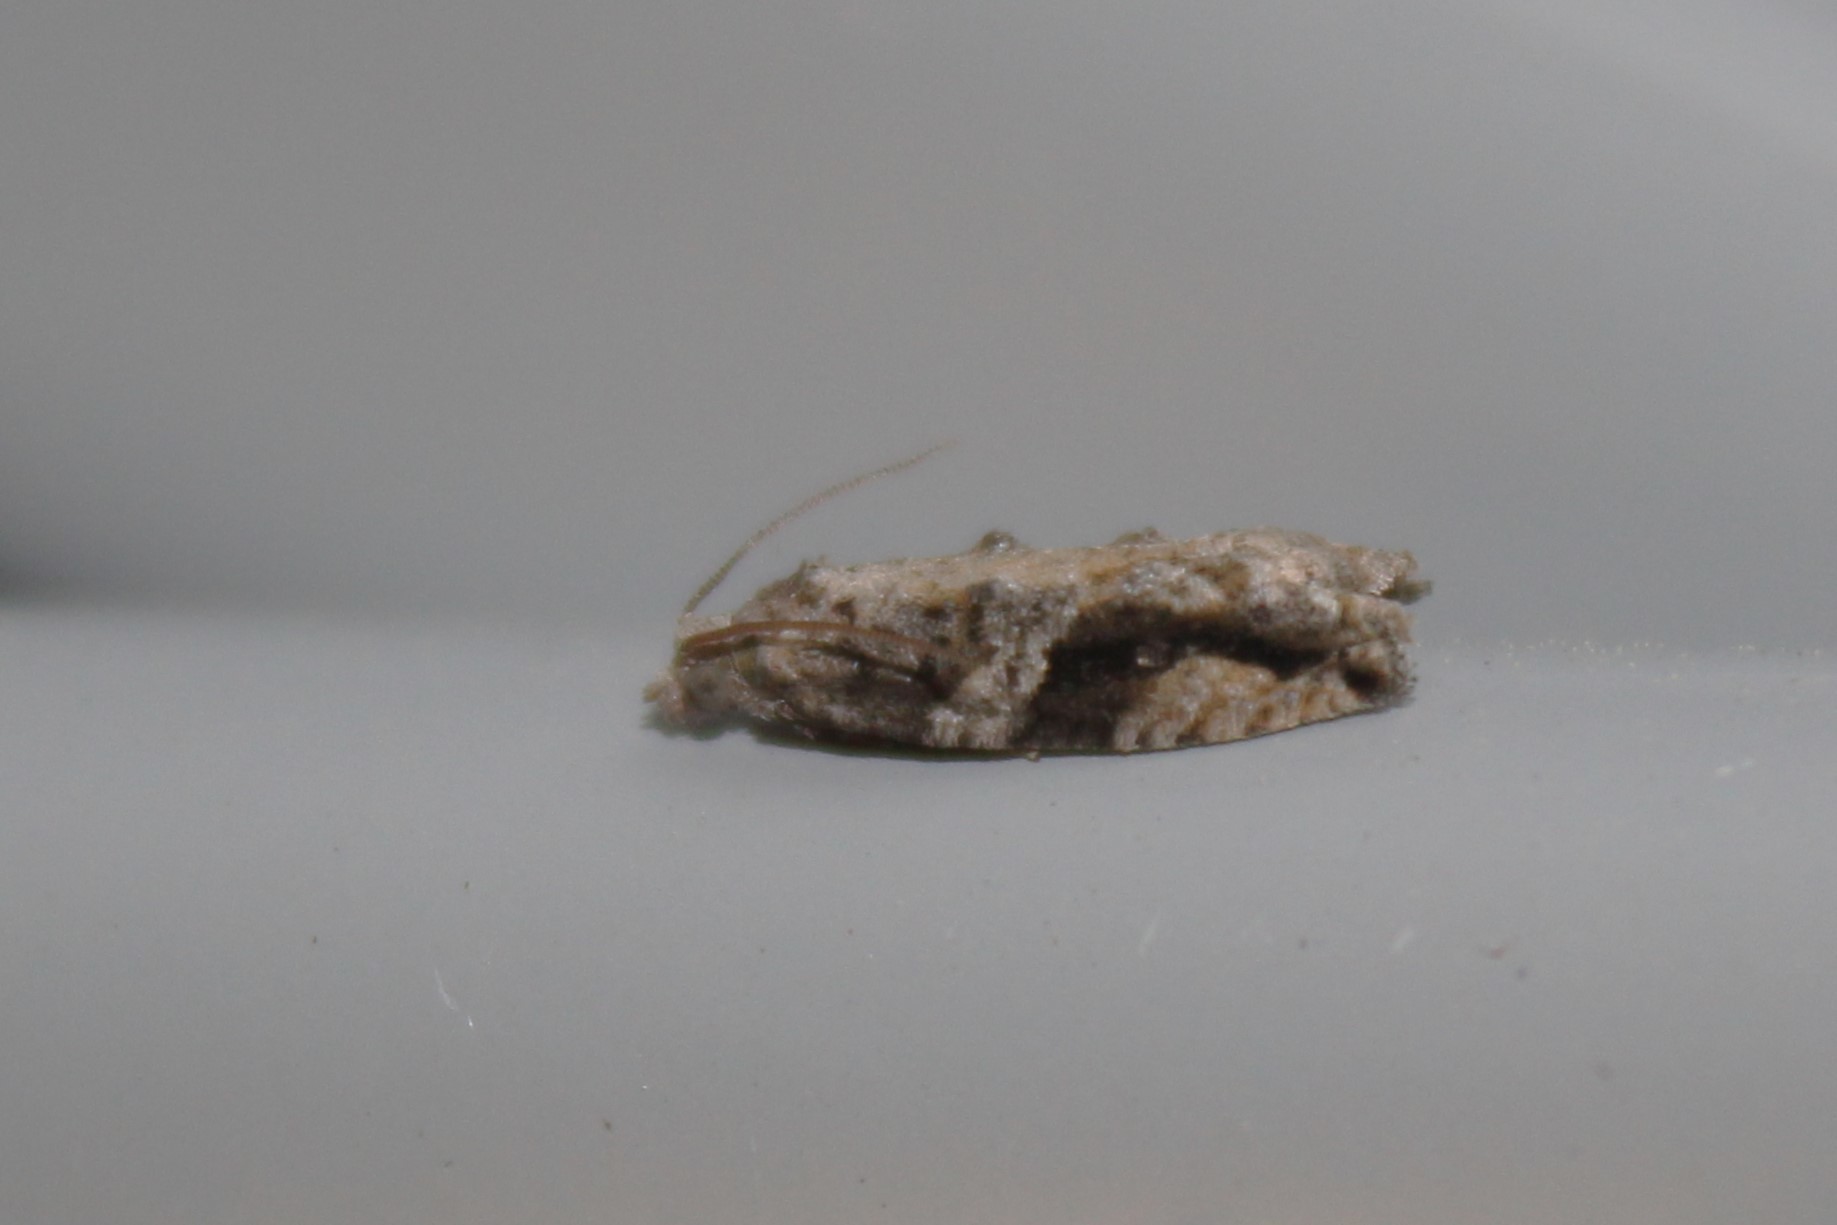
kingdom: Animalia
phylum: Arthropoda
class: Insecta
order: Lepidoptera
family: Tortricidae
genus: Proteoteras
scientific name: Proteoteras crescentana
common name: Black-crescent proteoteras moth
